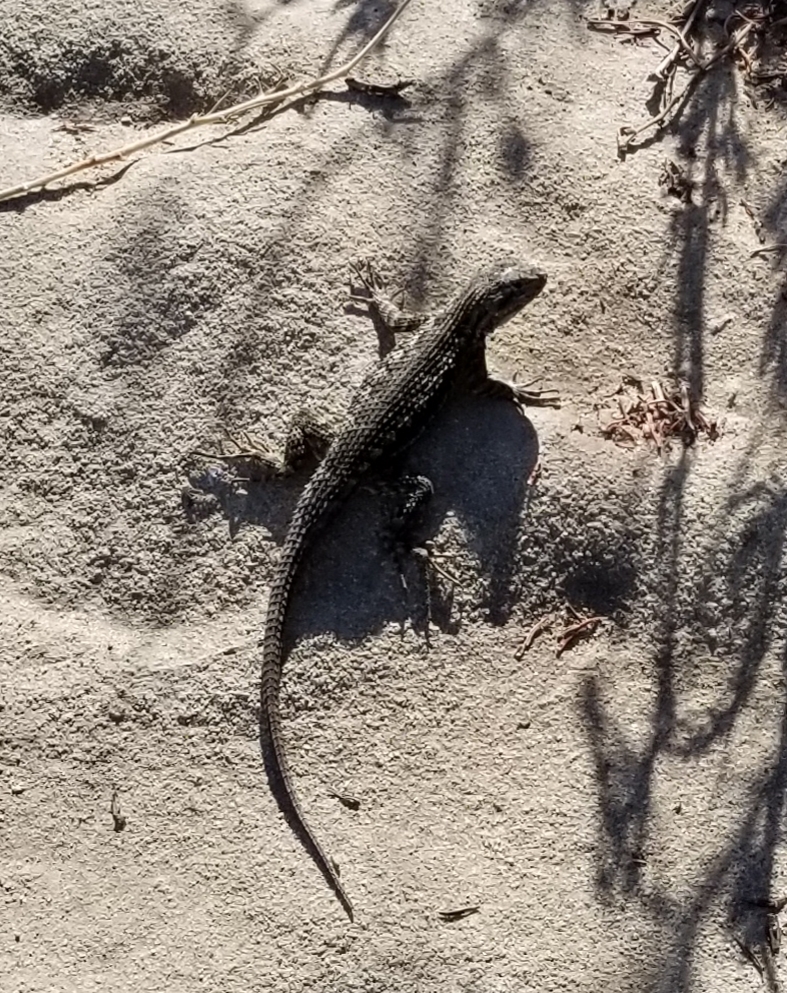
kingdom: Animalia
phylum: Chordata
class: Squamata
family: Phrynosomatidae
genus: Sceloporus
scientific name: Sceloporus occidentalis
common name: Western fence lizard
